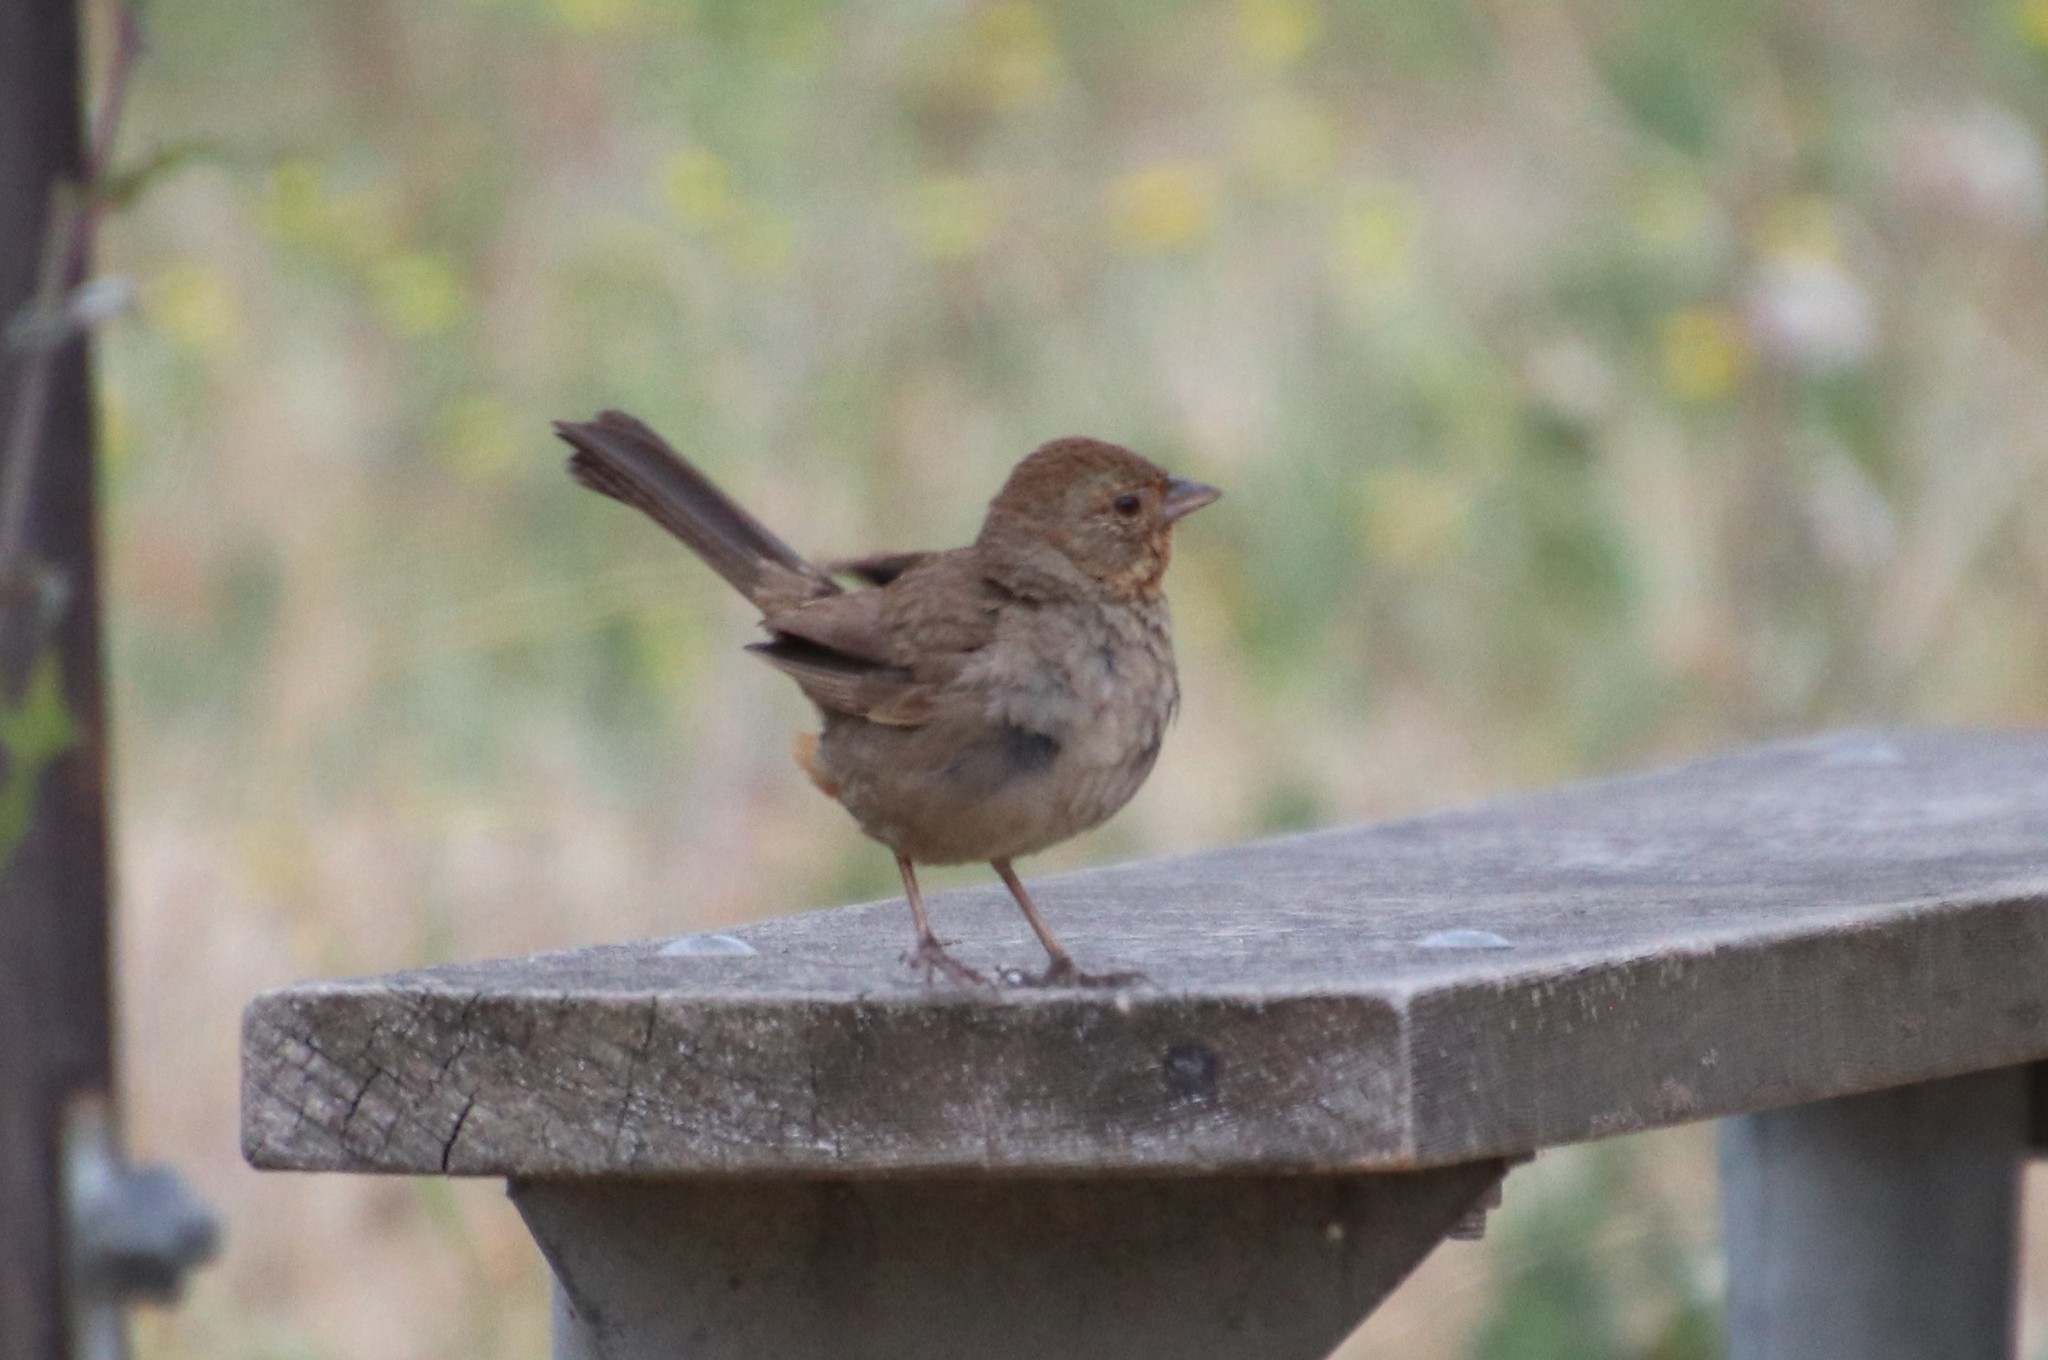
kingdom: Animalia
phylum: Chordata
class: Aves
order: Passeriformes
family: Passerellidae
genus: Melozone
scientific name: Melozone crissalis
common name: California towhee
